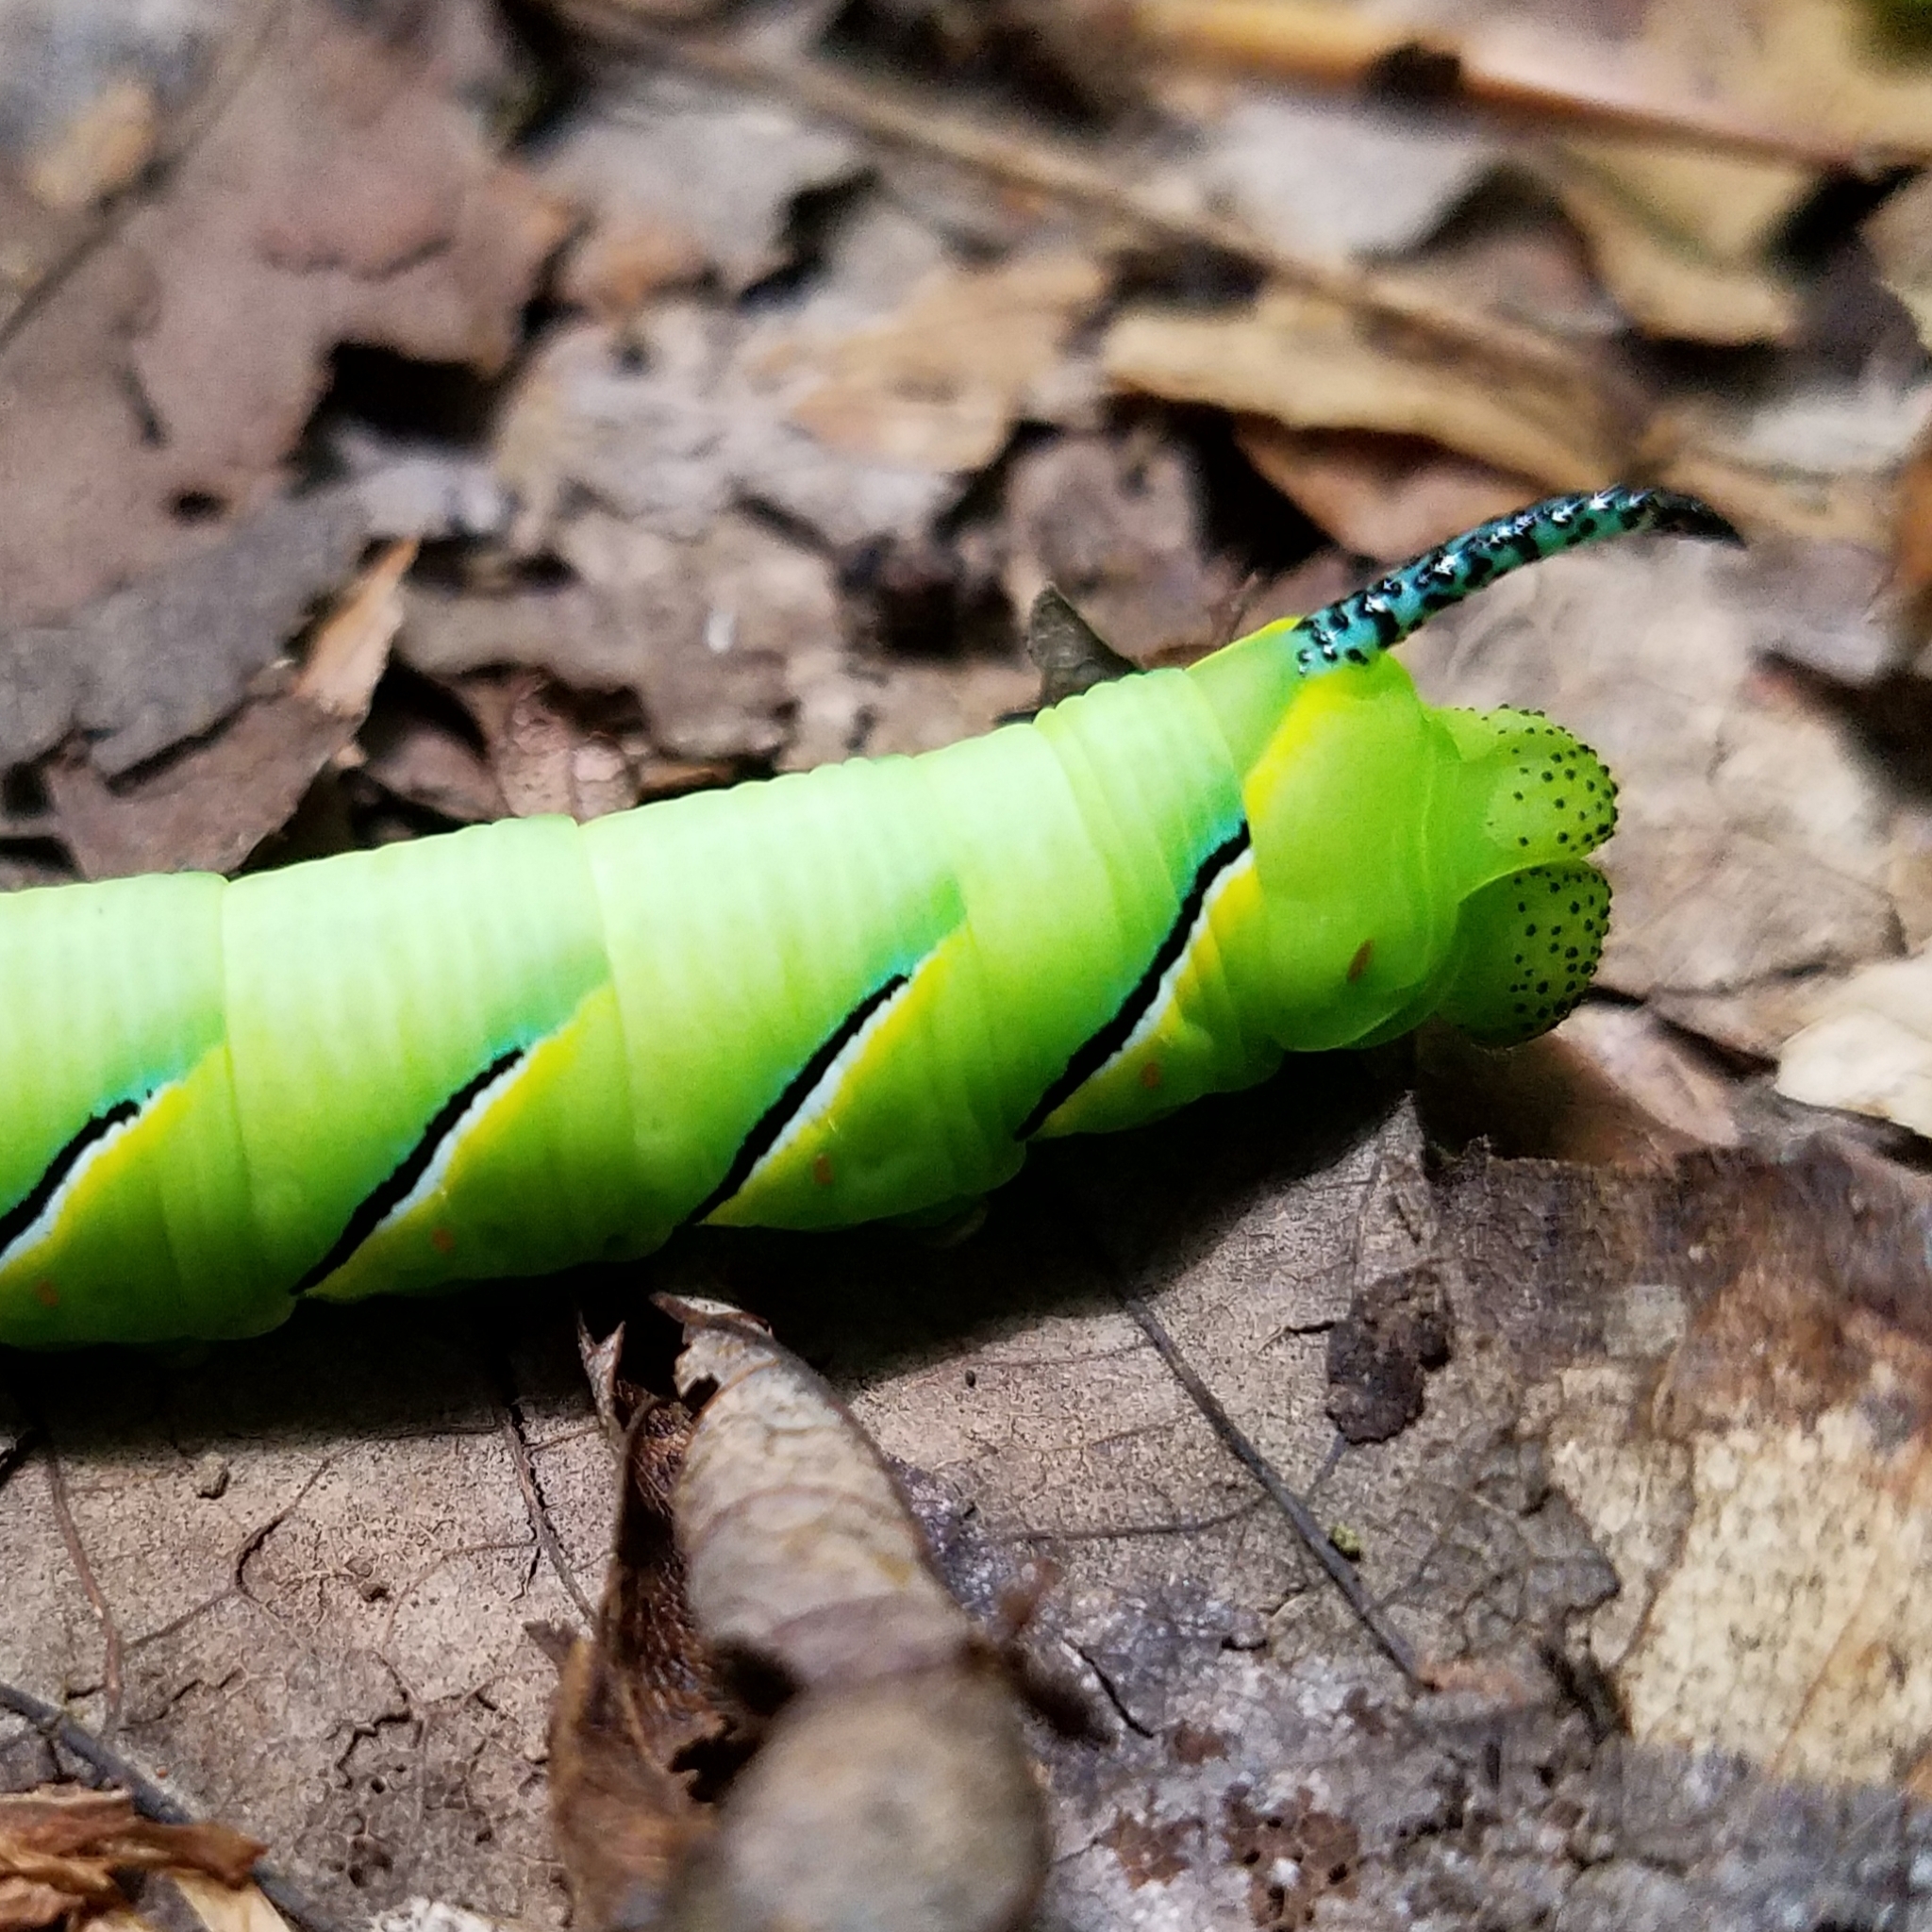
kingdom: Animalia
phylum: Arthropoda
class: Insecta
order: Lepidoptera
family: Sphingidae
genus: Sphinx
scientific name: Sphinx kalmiae
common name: Laurel sphinx
